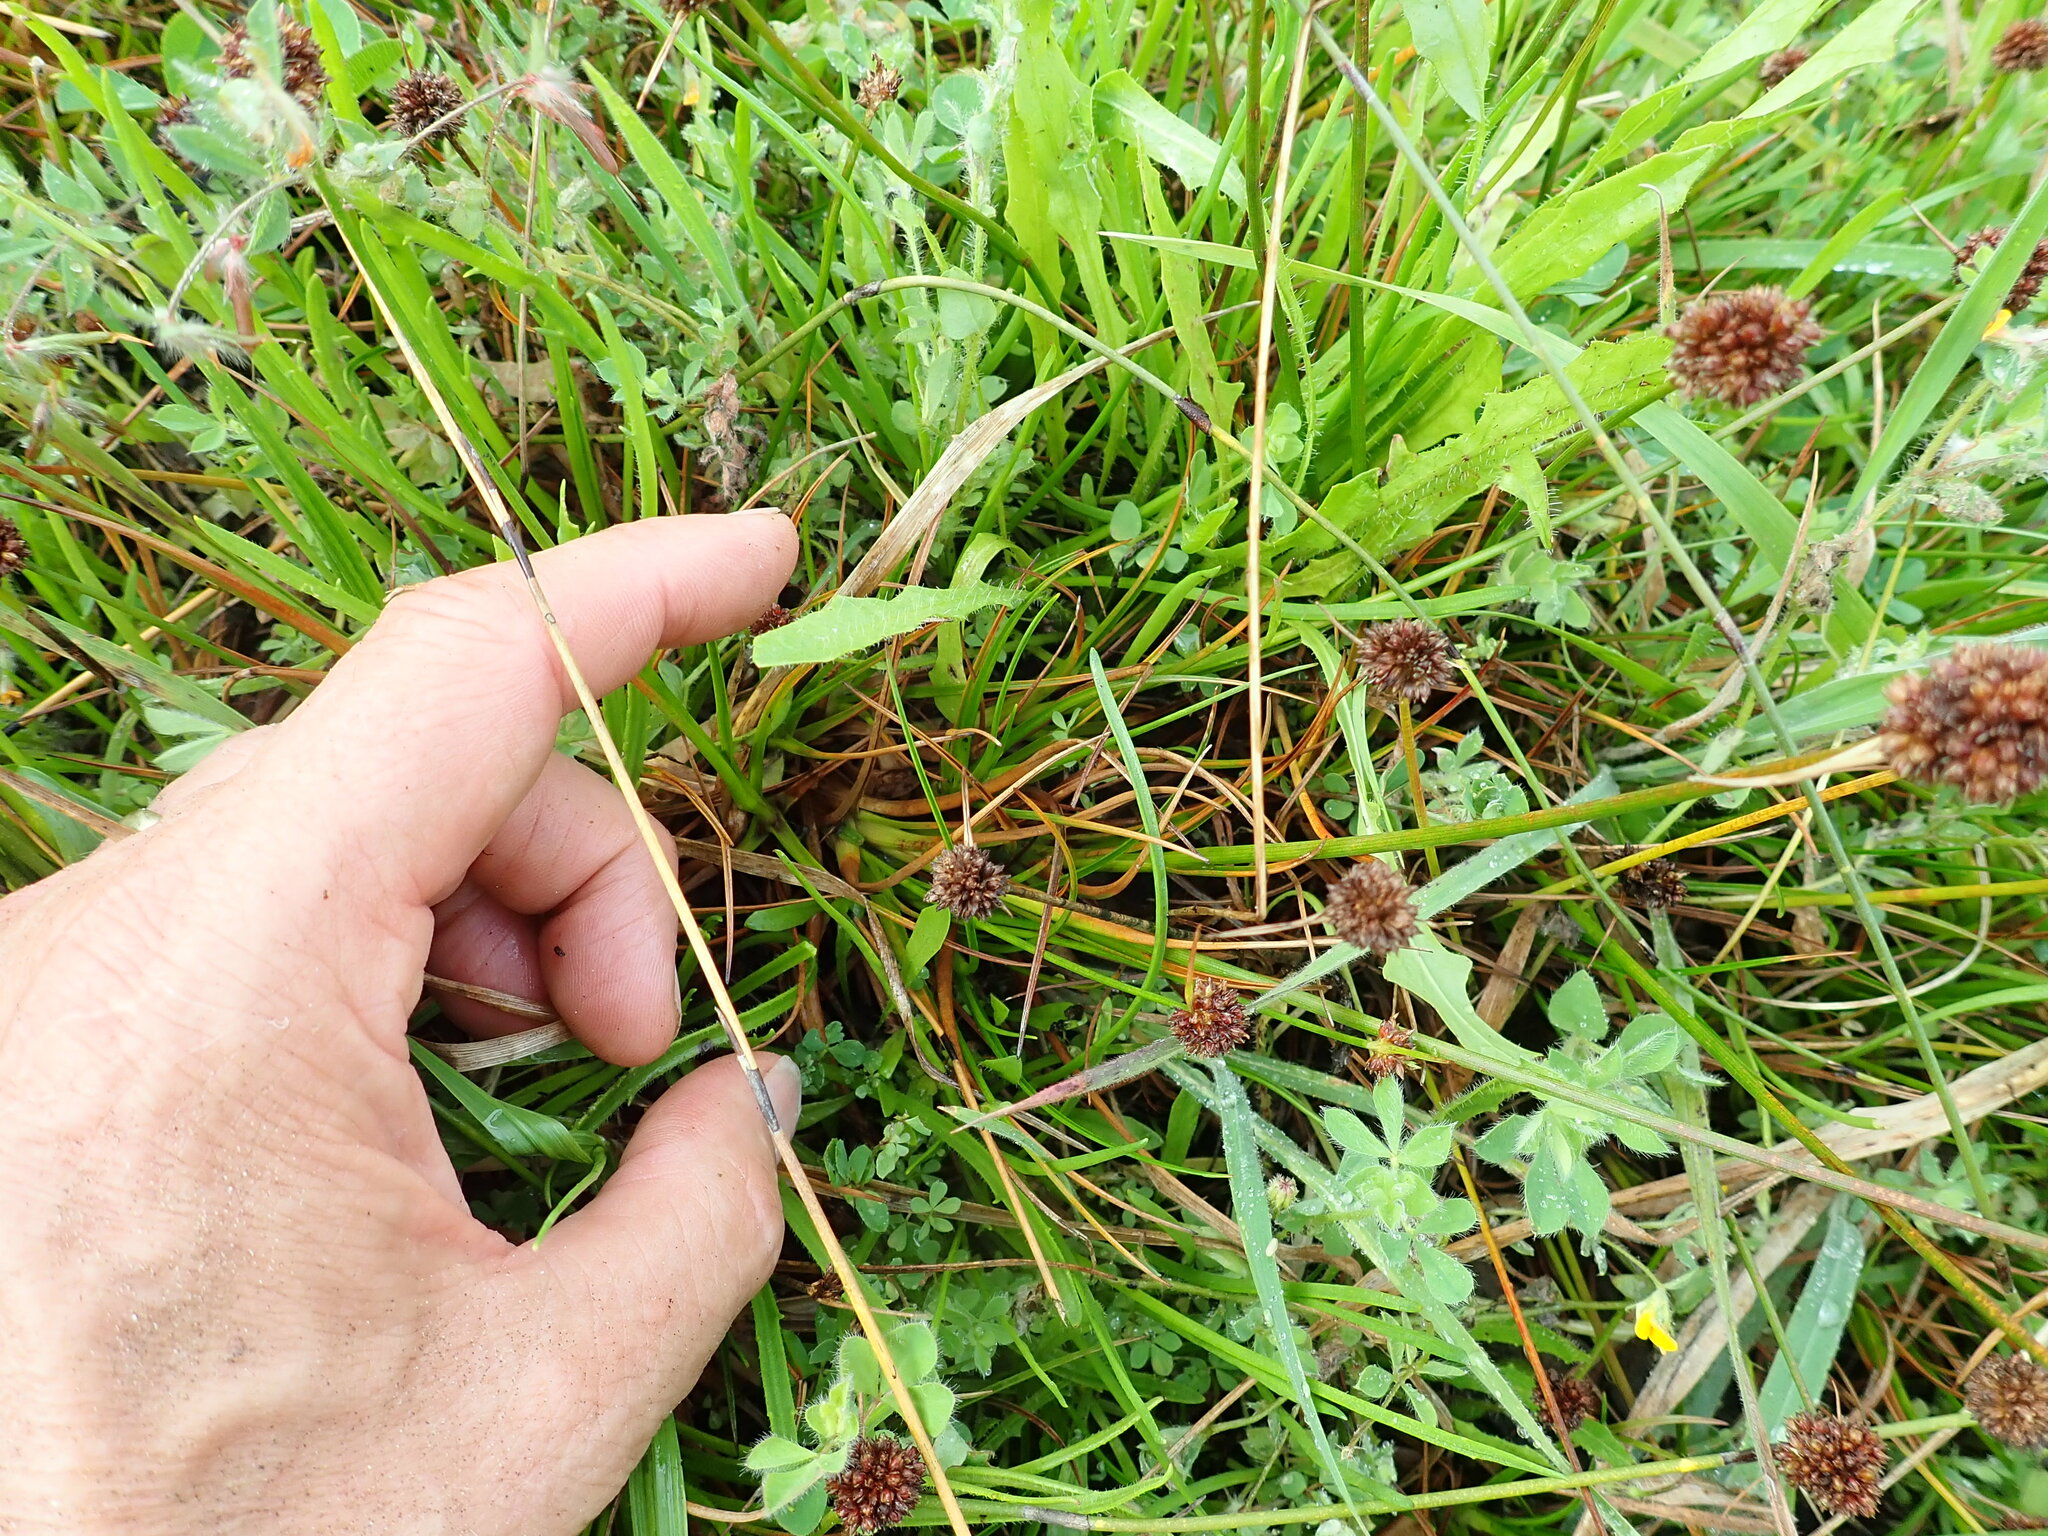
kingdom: Plantae
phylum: Tracheophyta
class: Liliopsida
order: Poales
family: Juncaceae
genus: Juncus
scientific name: Juncus caespiticius
